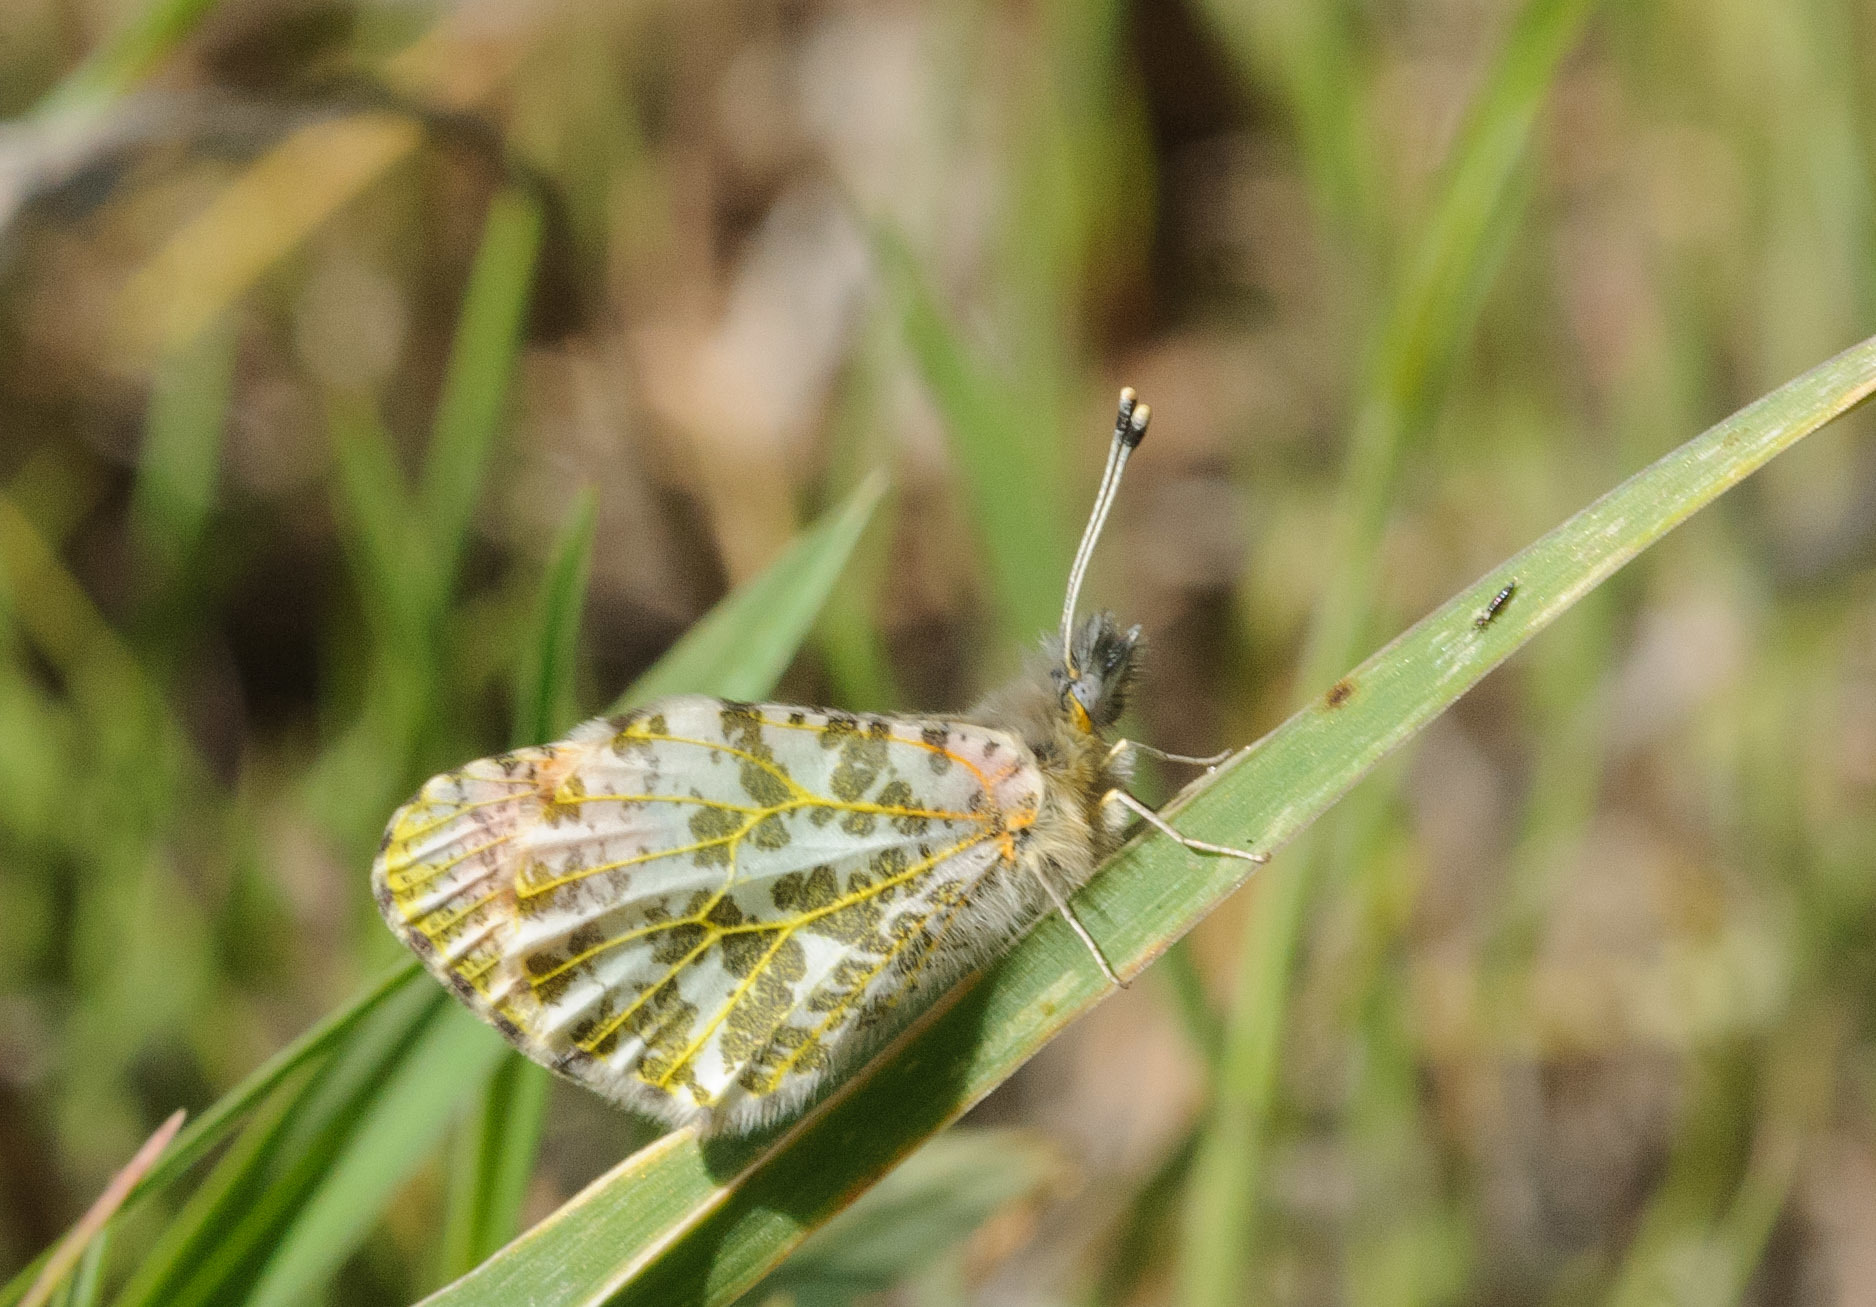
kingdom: Animalia
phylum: Arthropoda
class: Insecta
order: Lepidoptera
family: Pieridae
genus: Anthocharis
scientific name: Anthocharis julia
